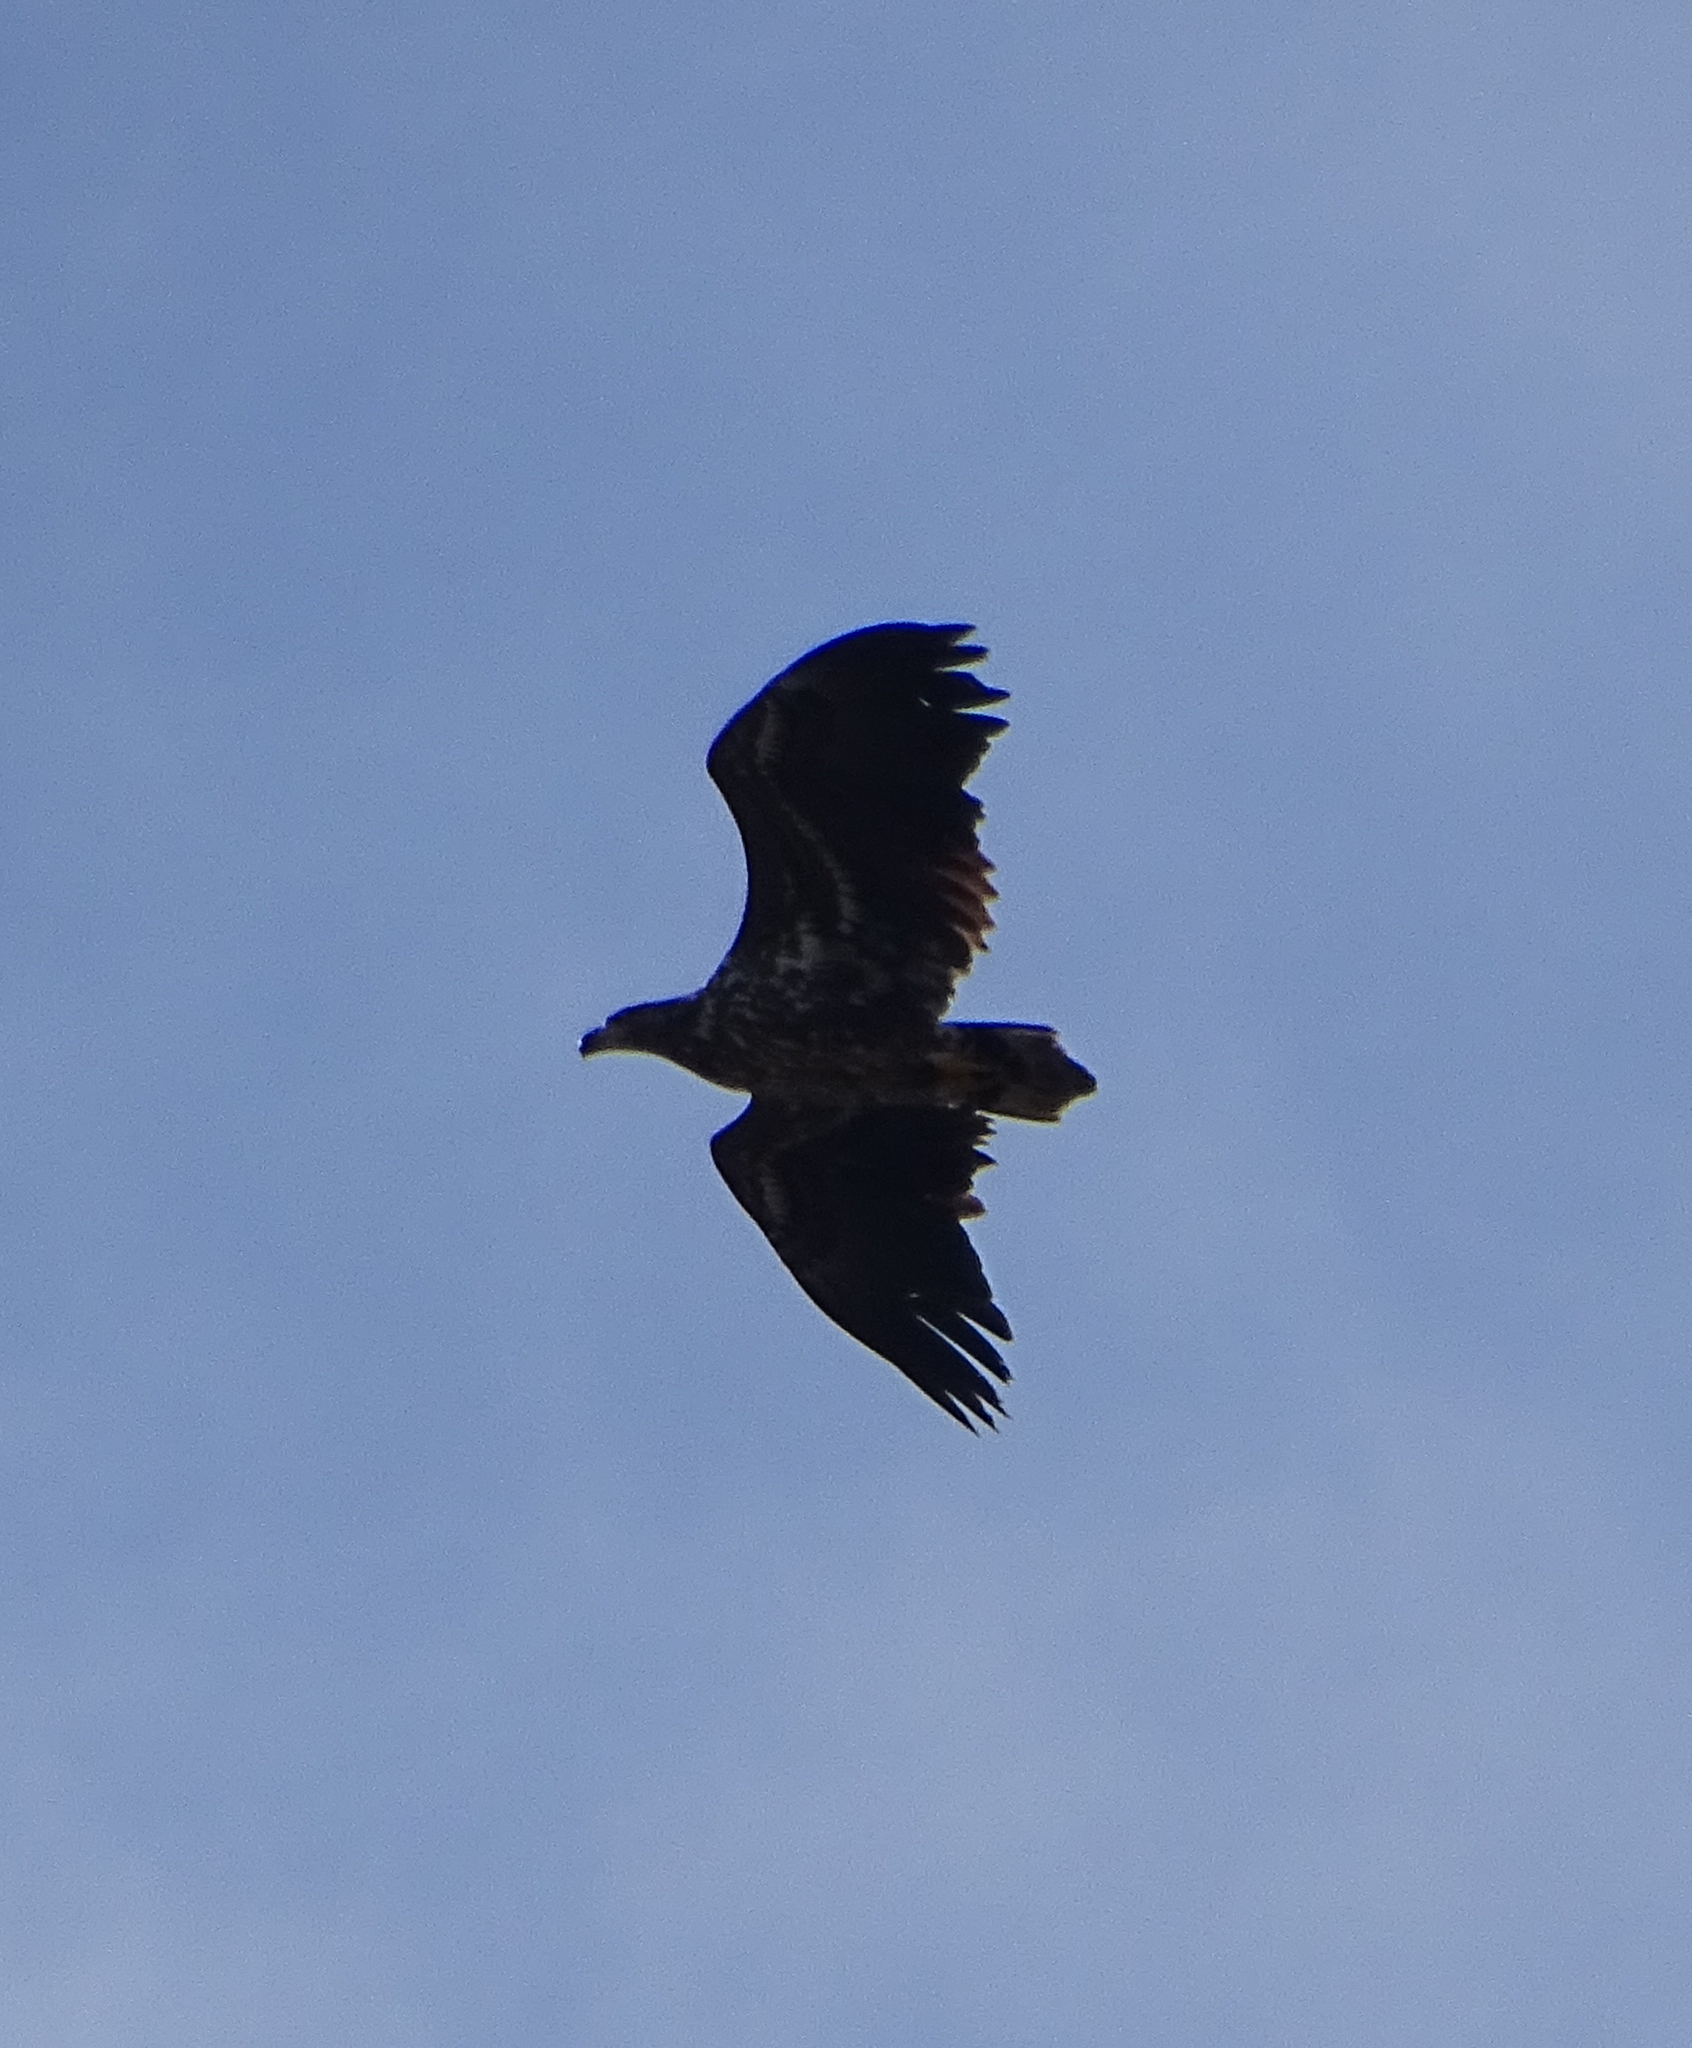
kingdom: Animalia
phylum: Chordata
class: Aves
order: Accipitriformes
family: Accipitridae
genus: Haliaeetus
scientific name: Haliaeetus albicilla
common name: White-tailed eagle
